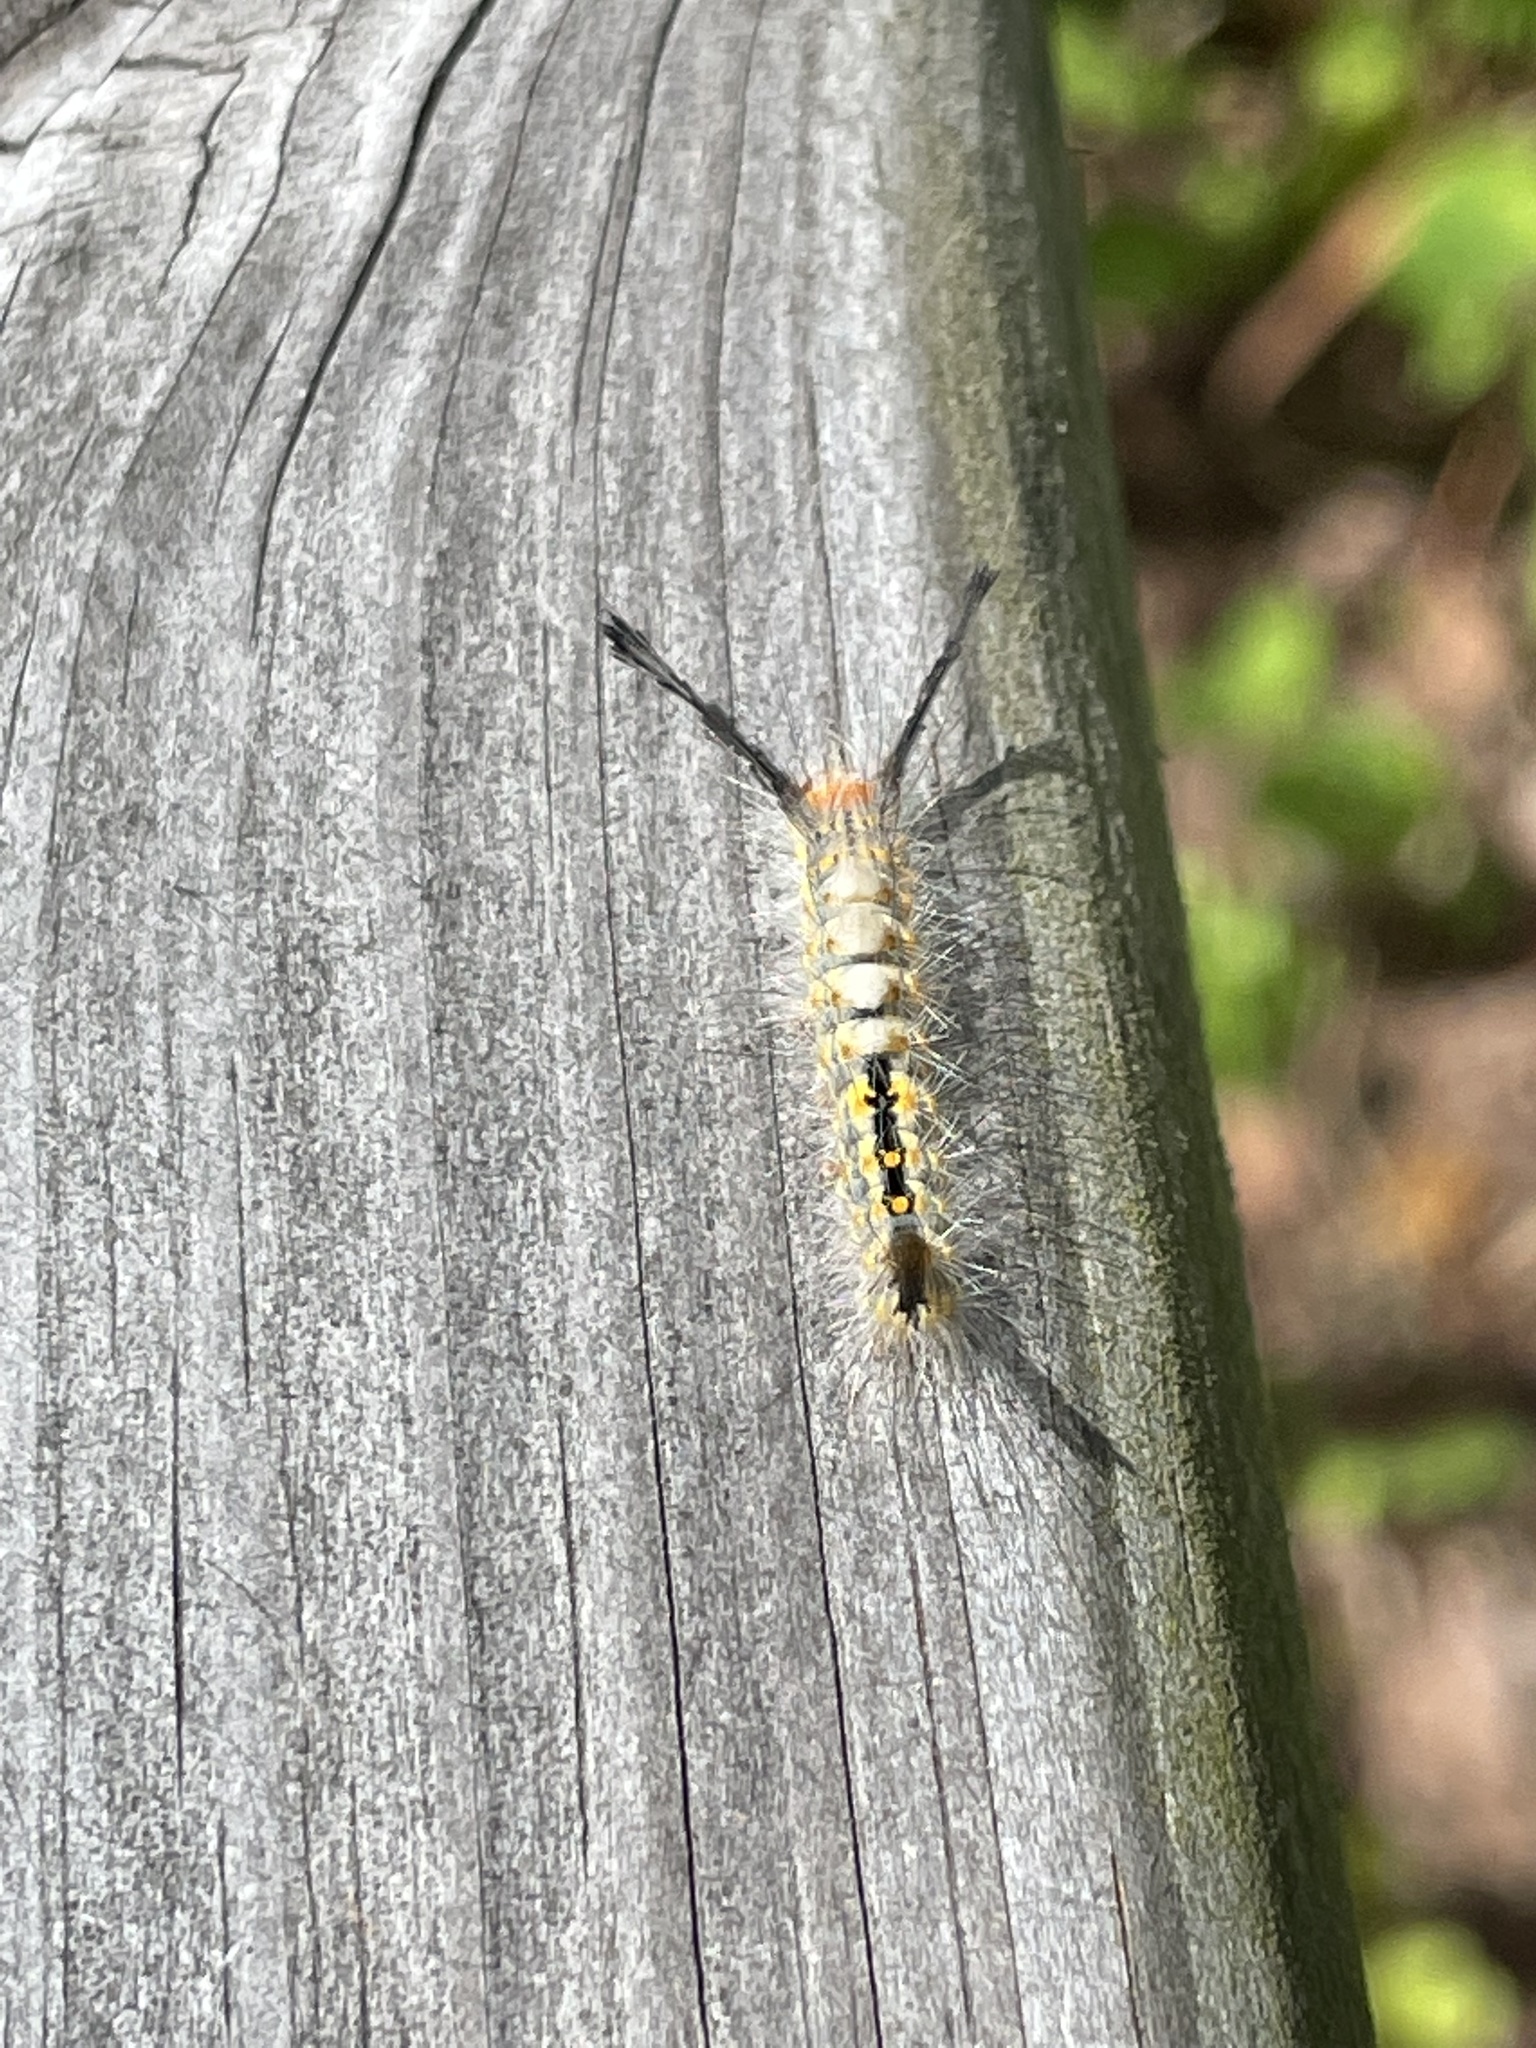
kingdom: Animalia
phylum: Arthropoda
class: Insecta
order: Lepidoptera
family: Erebidae
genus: Orgyia
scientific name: Orgyia detrita
